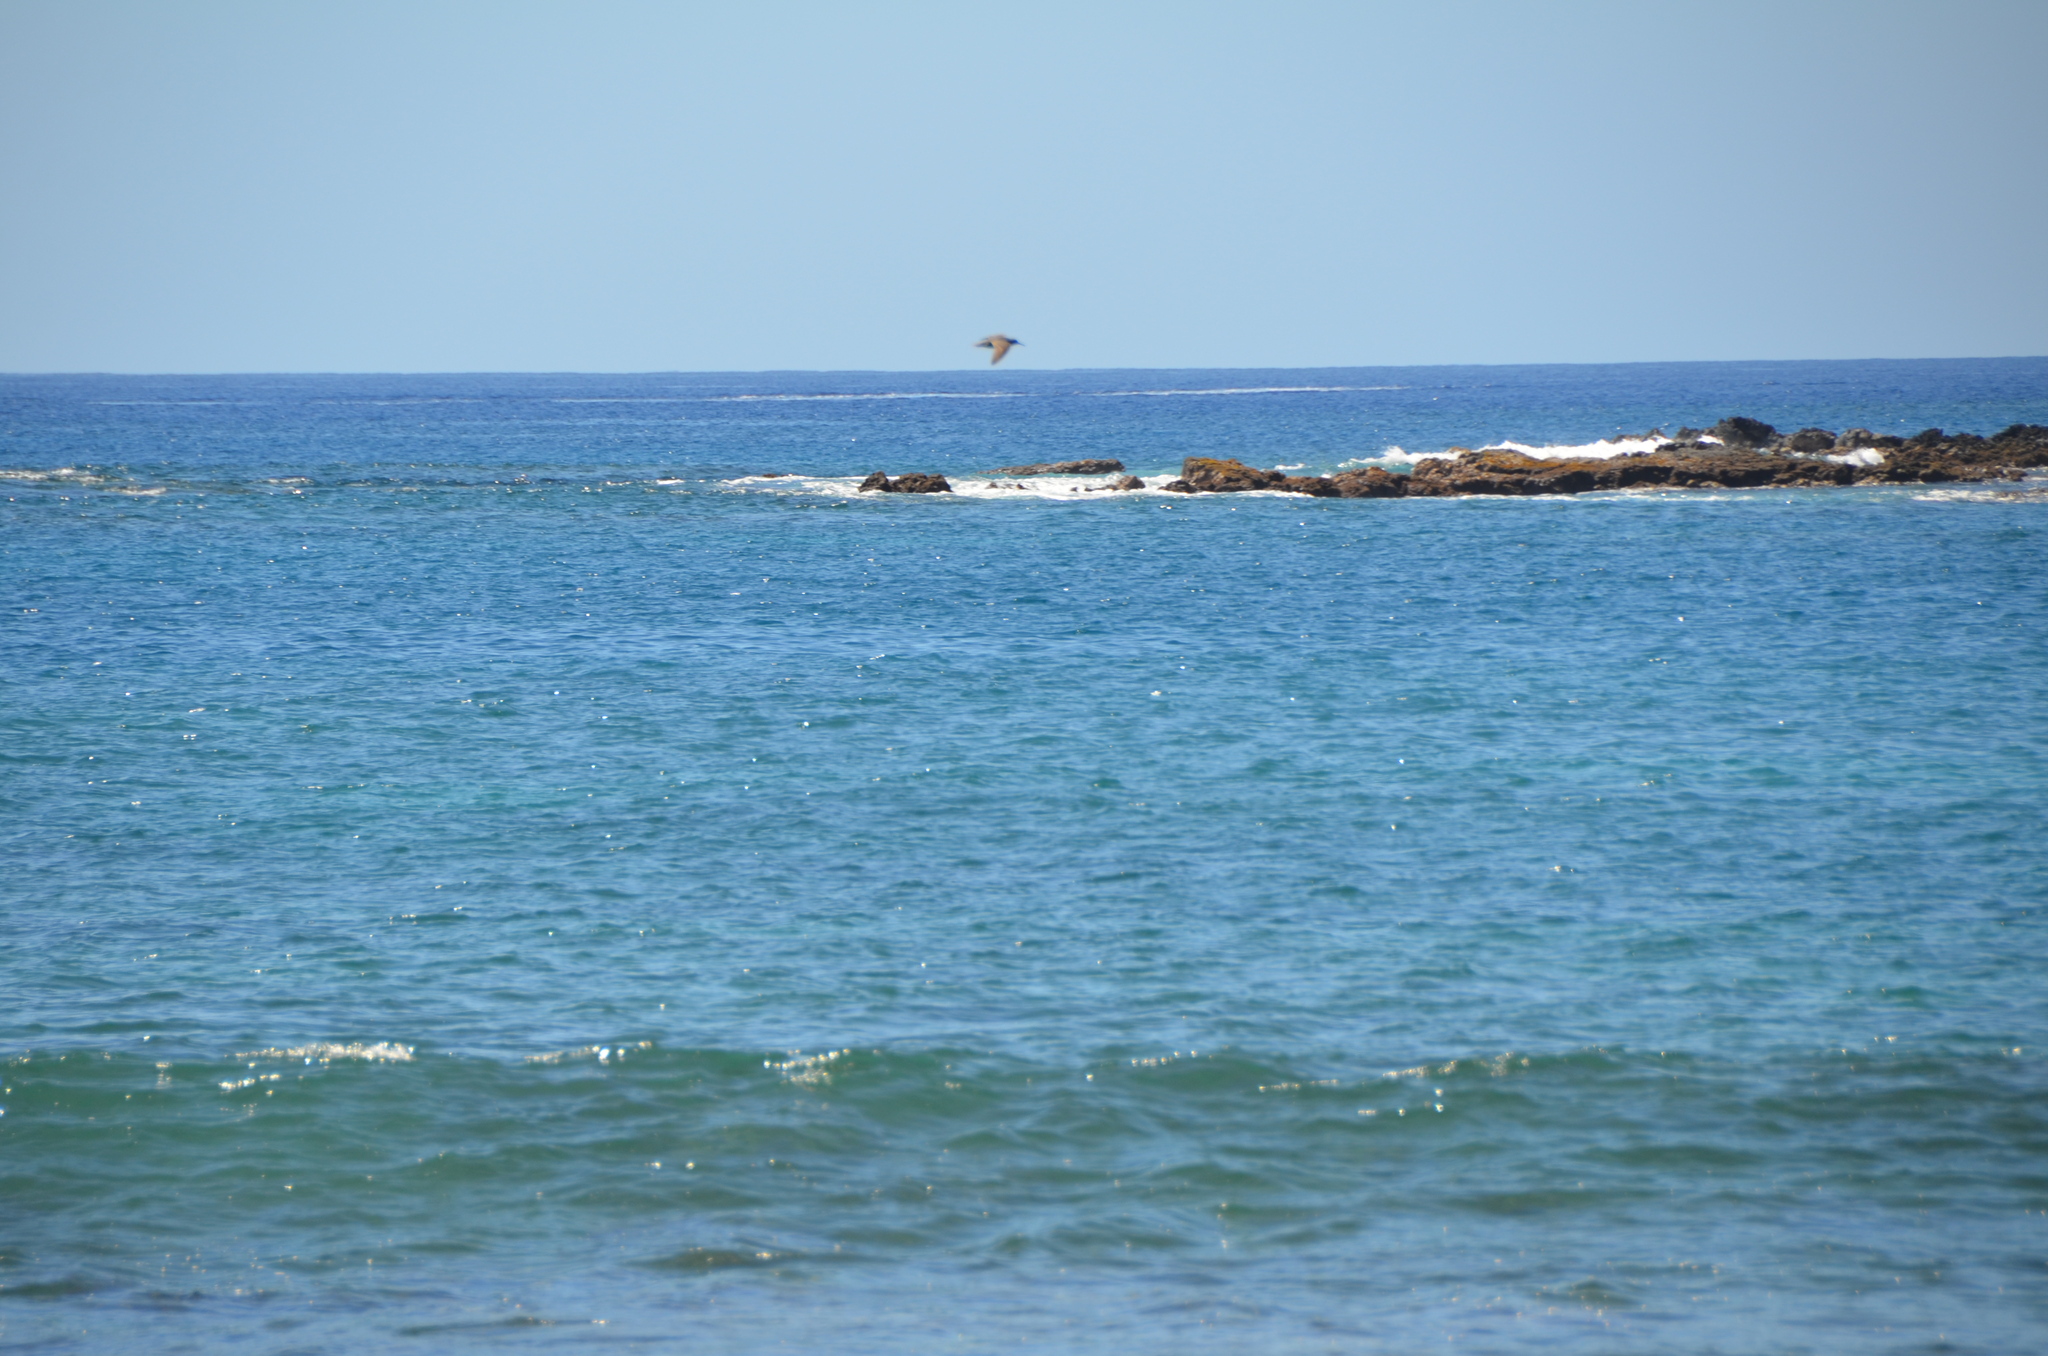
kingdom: Animalia
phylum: Chordata
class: Aves
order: Charadriiformes
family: Scolopacidae
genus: Tringa
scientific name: Tringa incana
